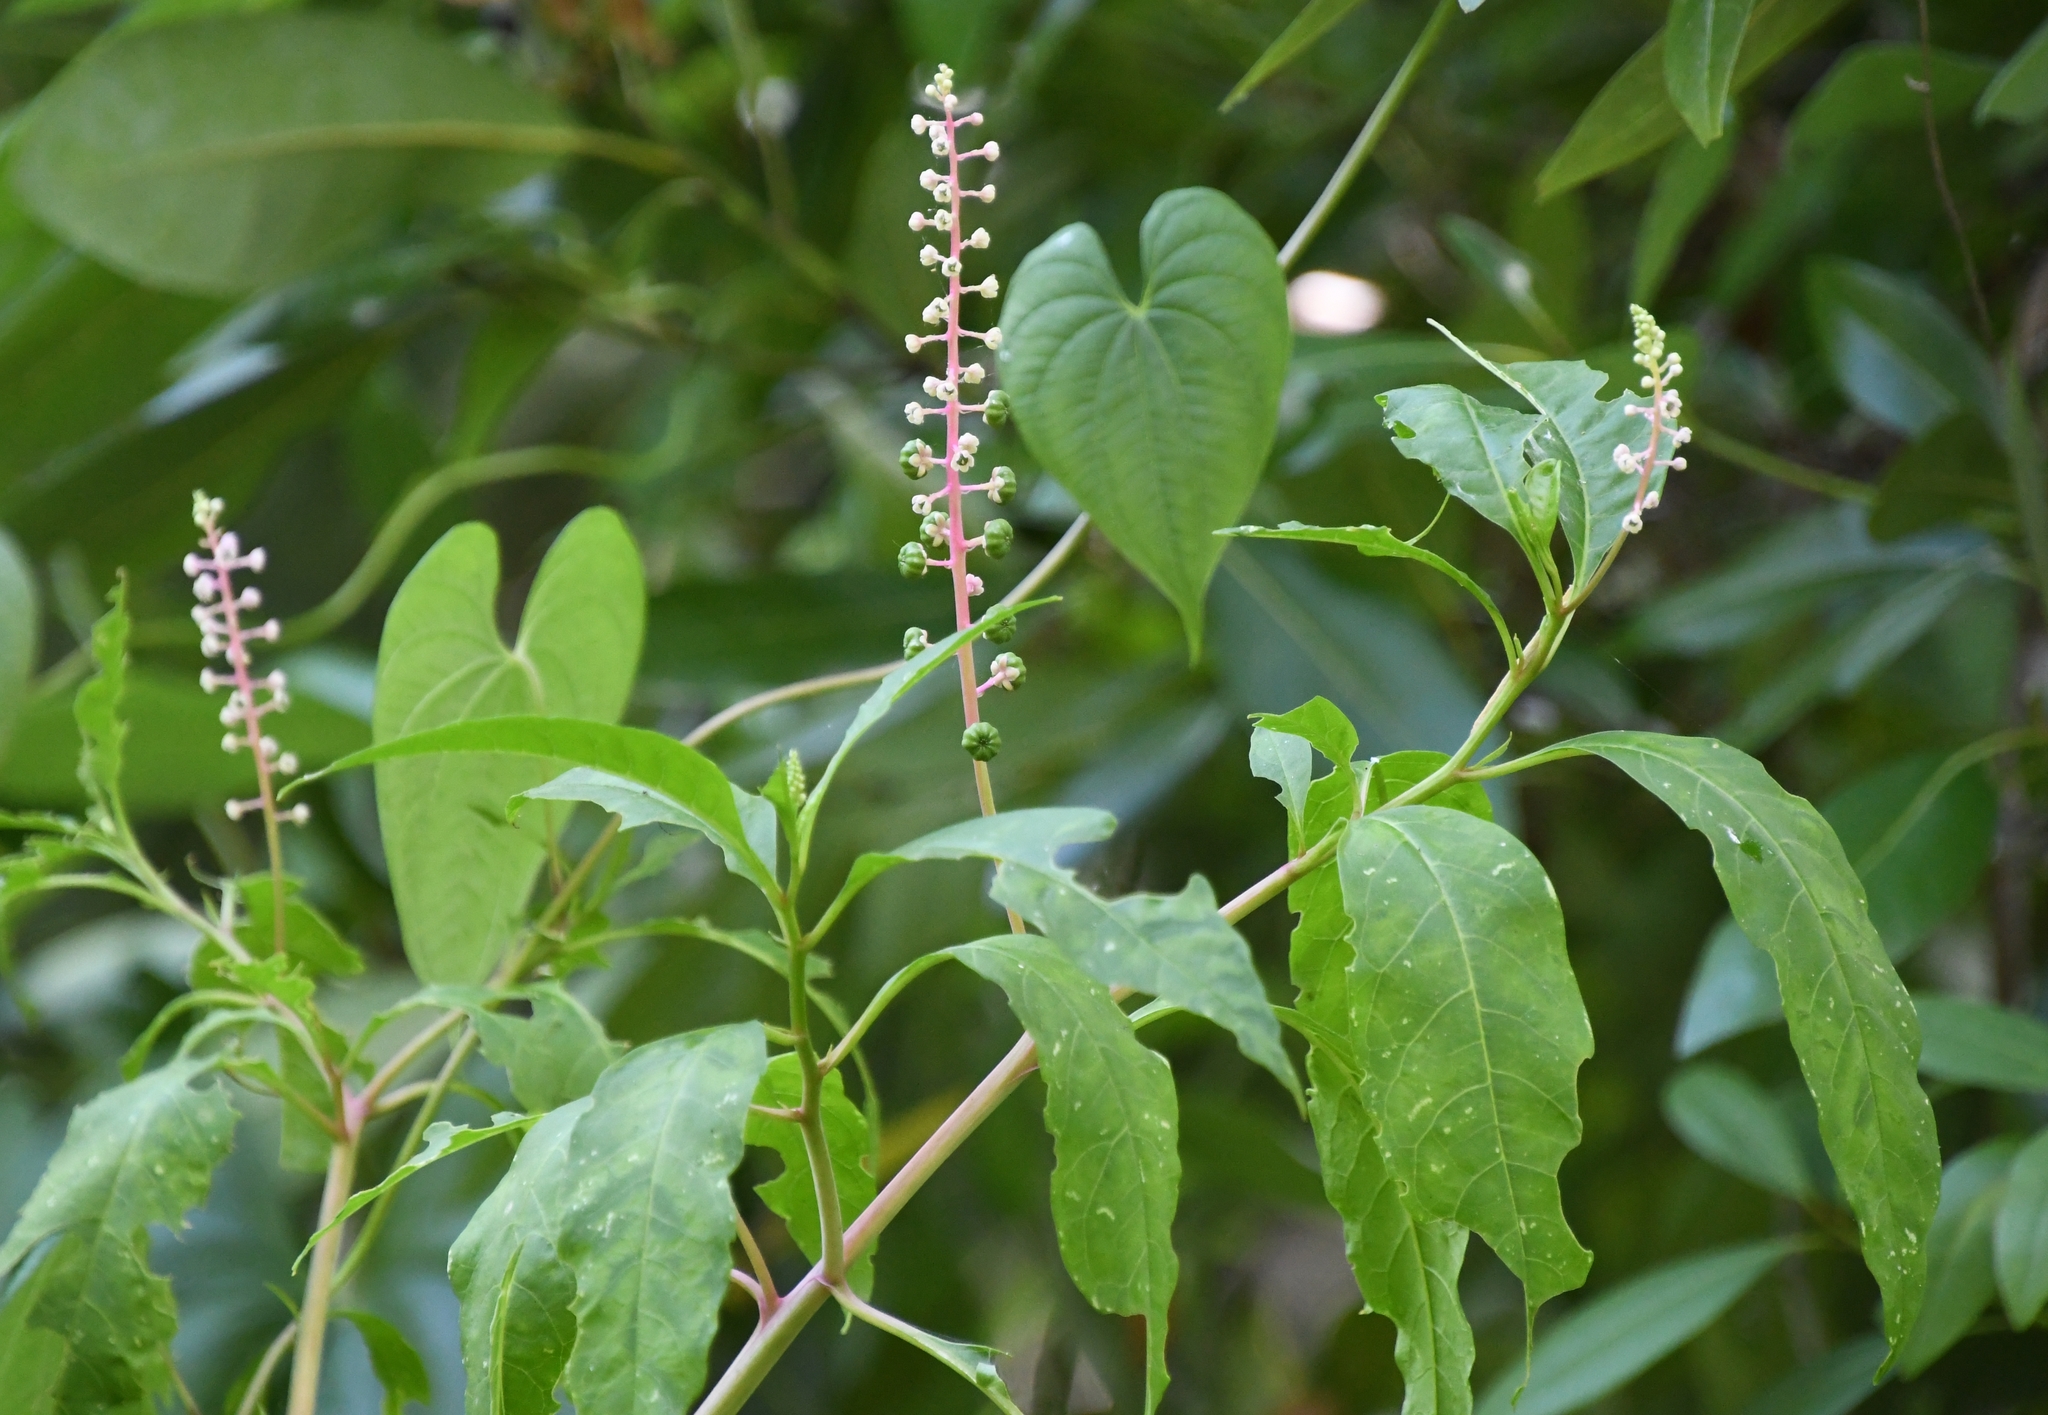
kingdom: Plantae
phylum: Tracheophyta
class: Magnoliopsida
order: Caryophyllales
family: Phytolaccaceae
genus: Phytolacca
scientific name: Phytolacca americana
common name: American pokeweed
